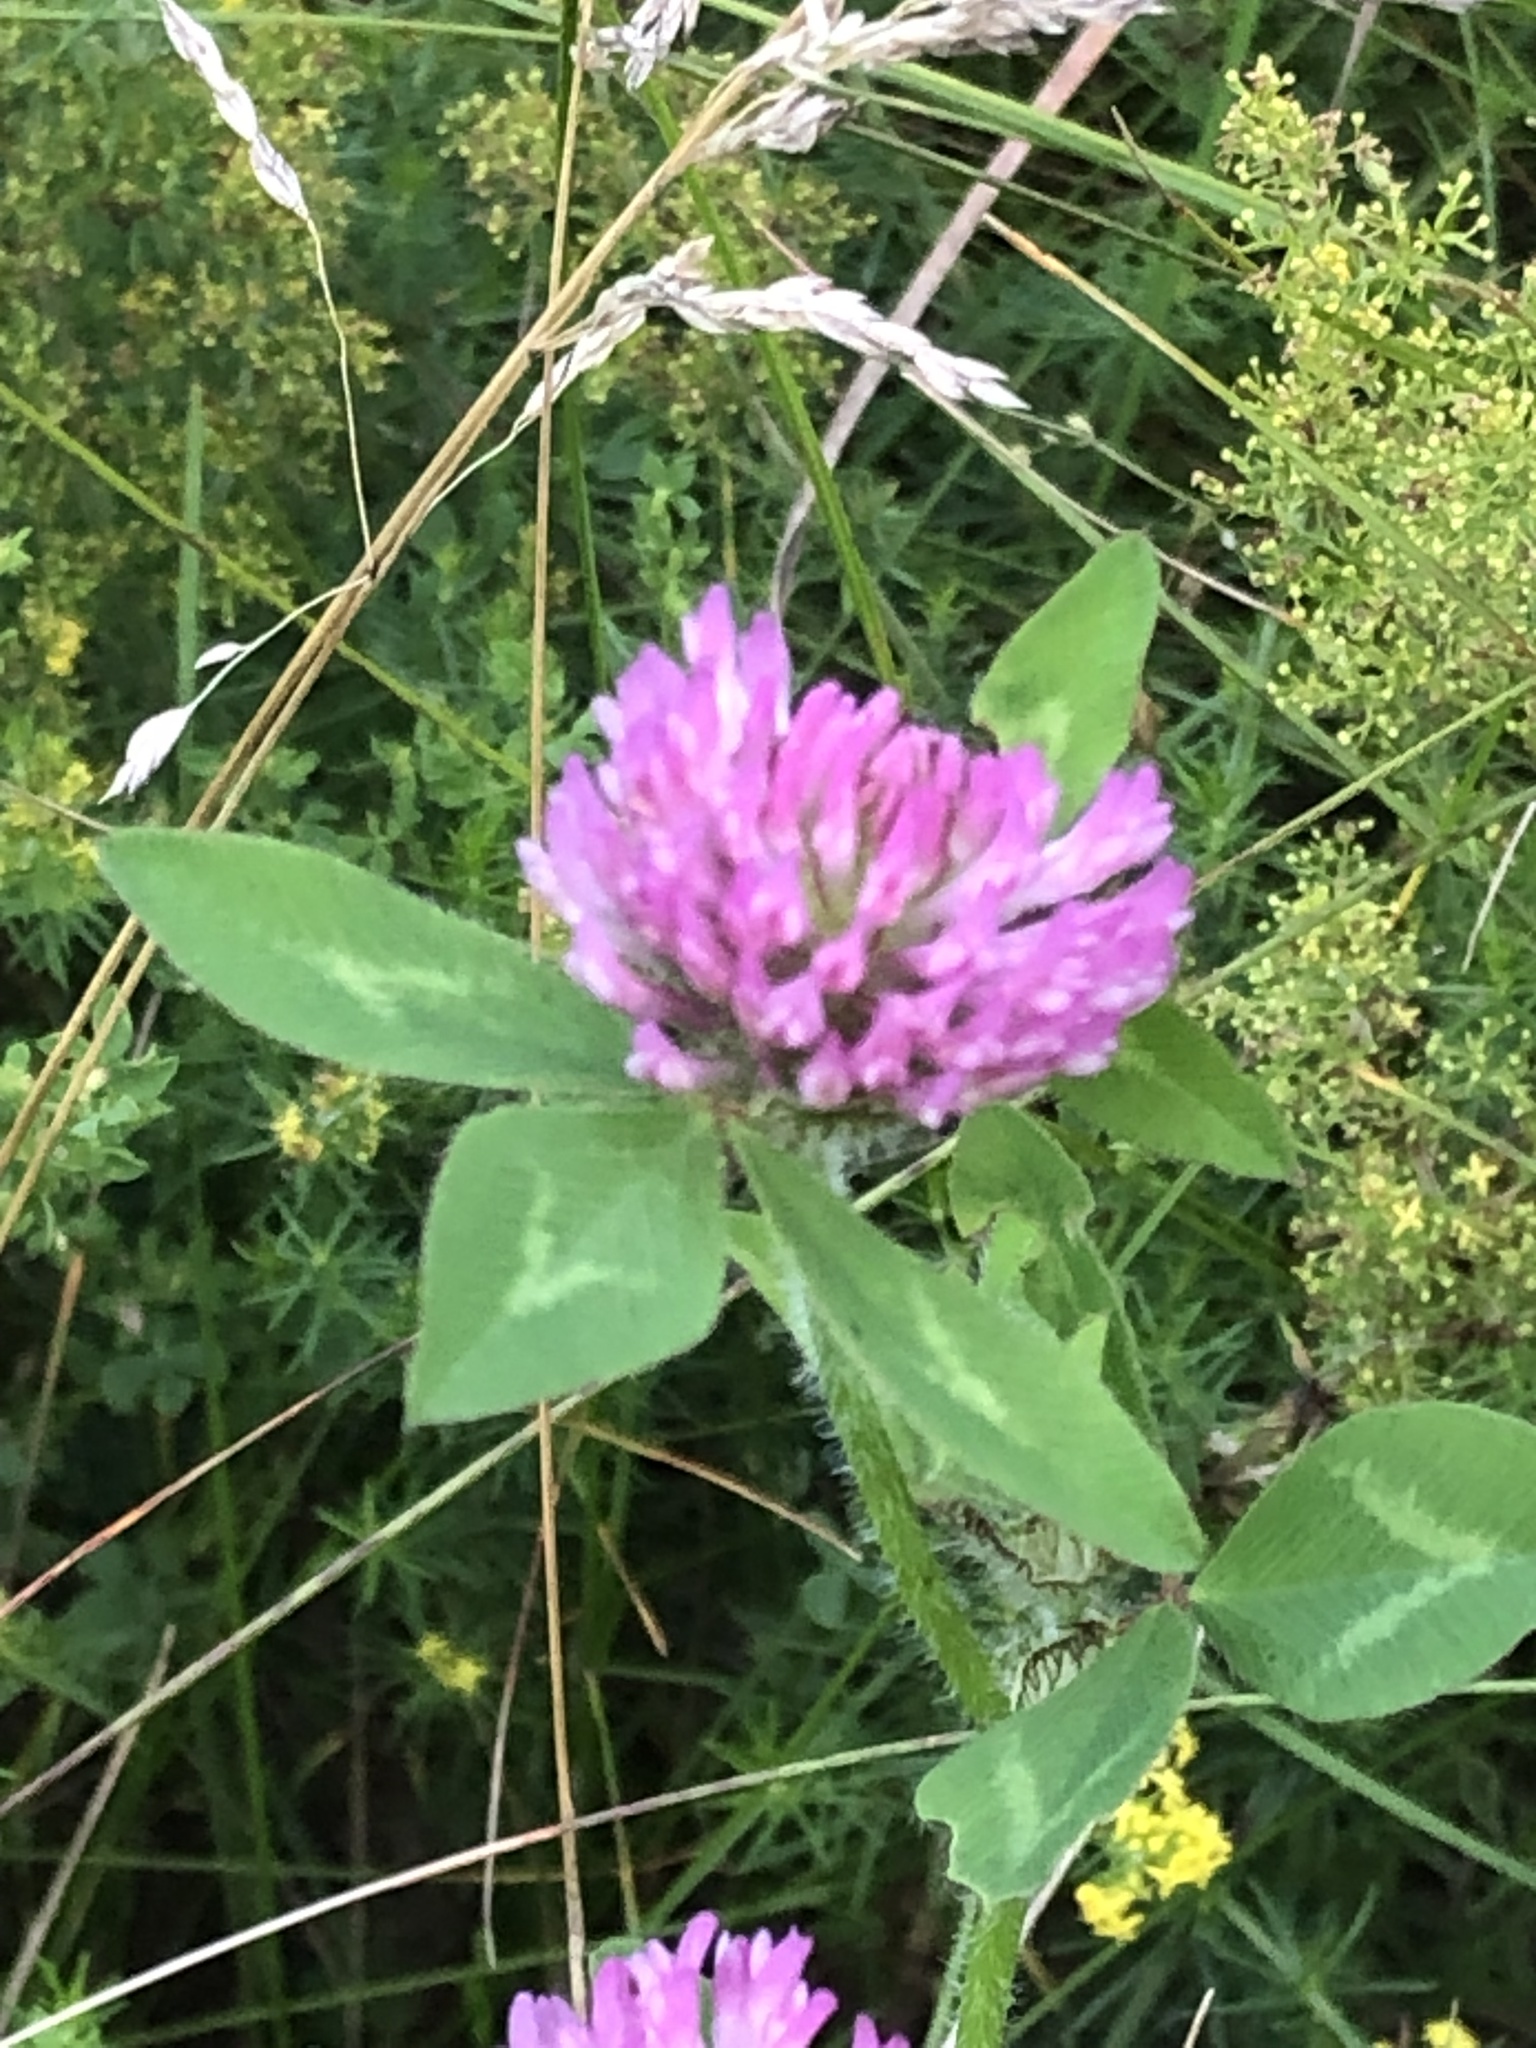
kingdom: Plantae
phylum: Tracheophyta
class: Magnoliopsida
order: Fabales
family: Fabaceae
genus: Trifolium
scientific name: Trifolium pratense
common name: Red clover
